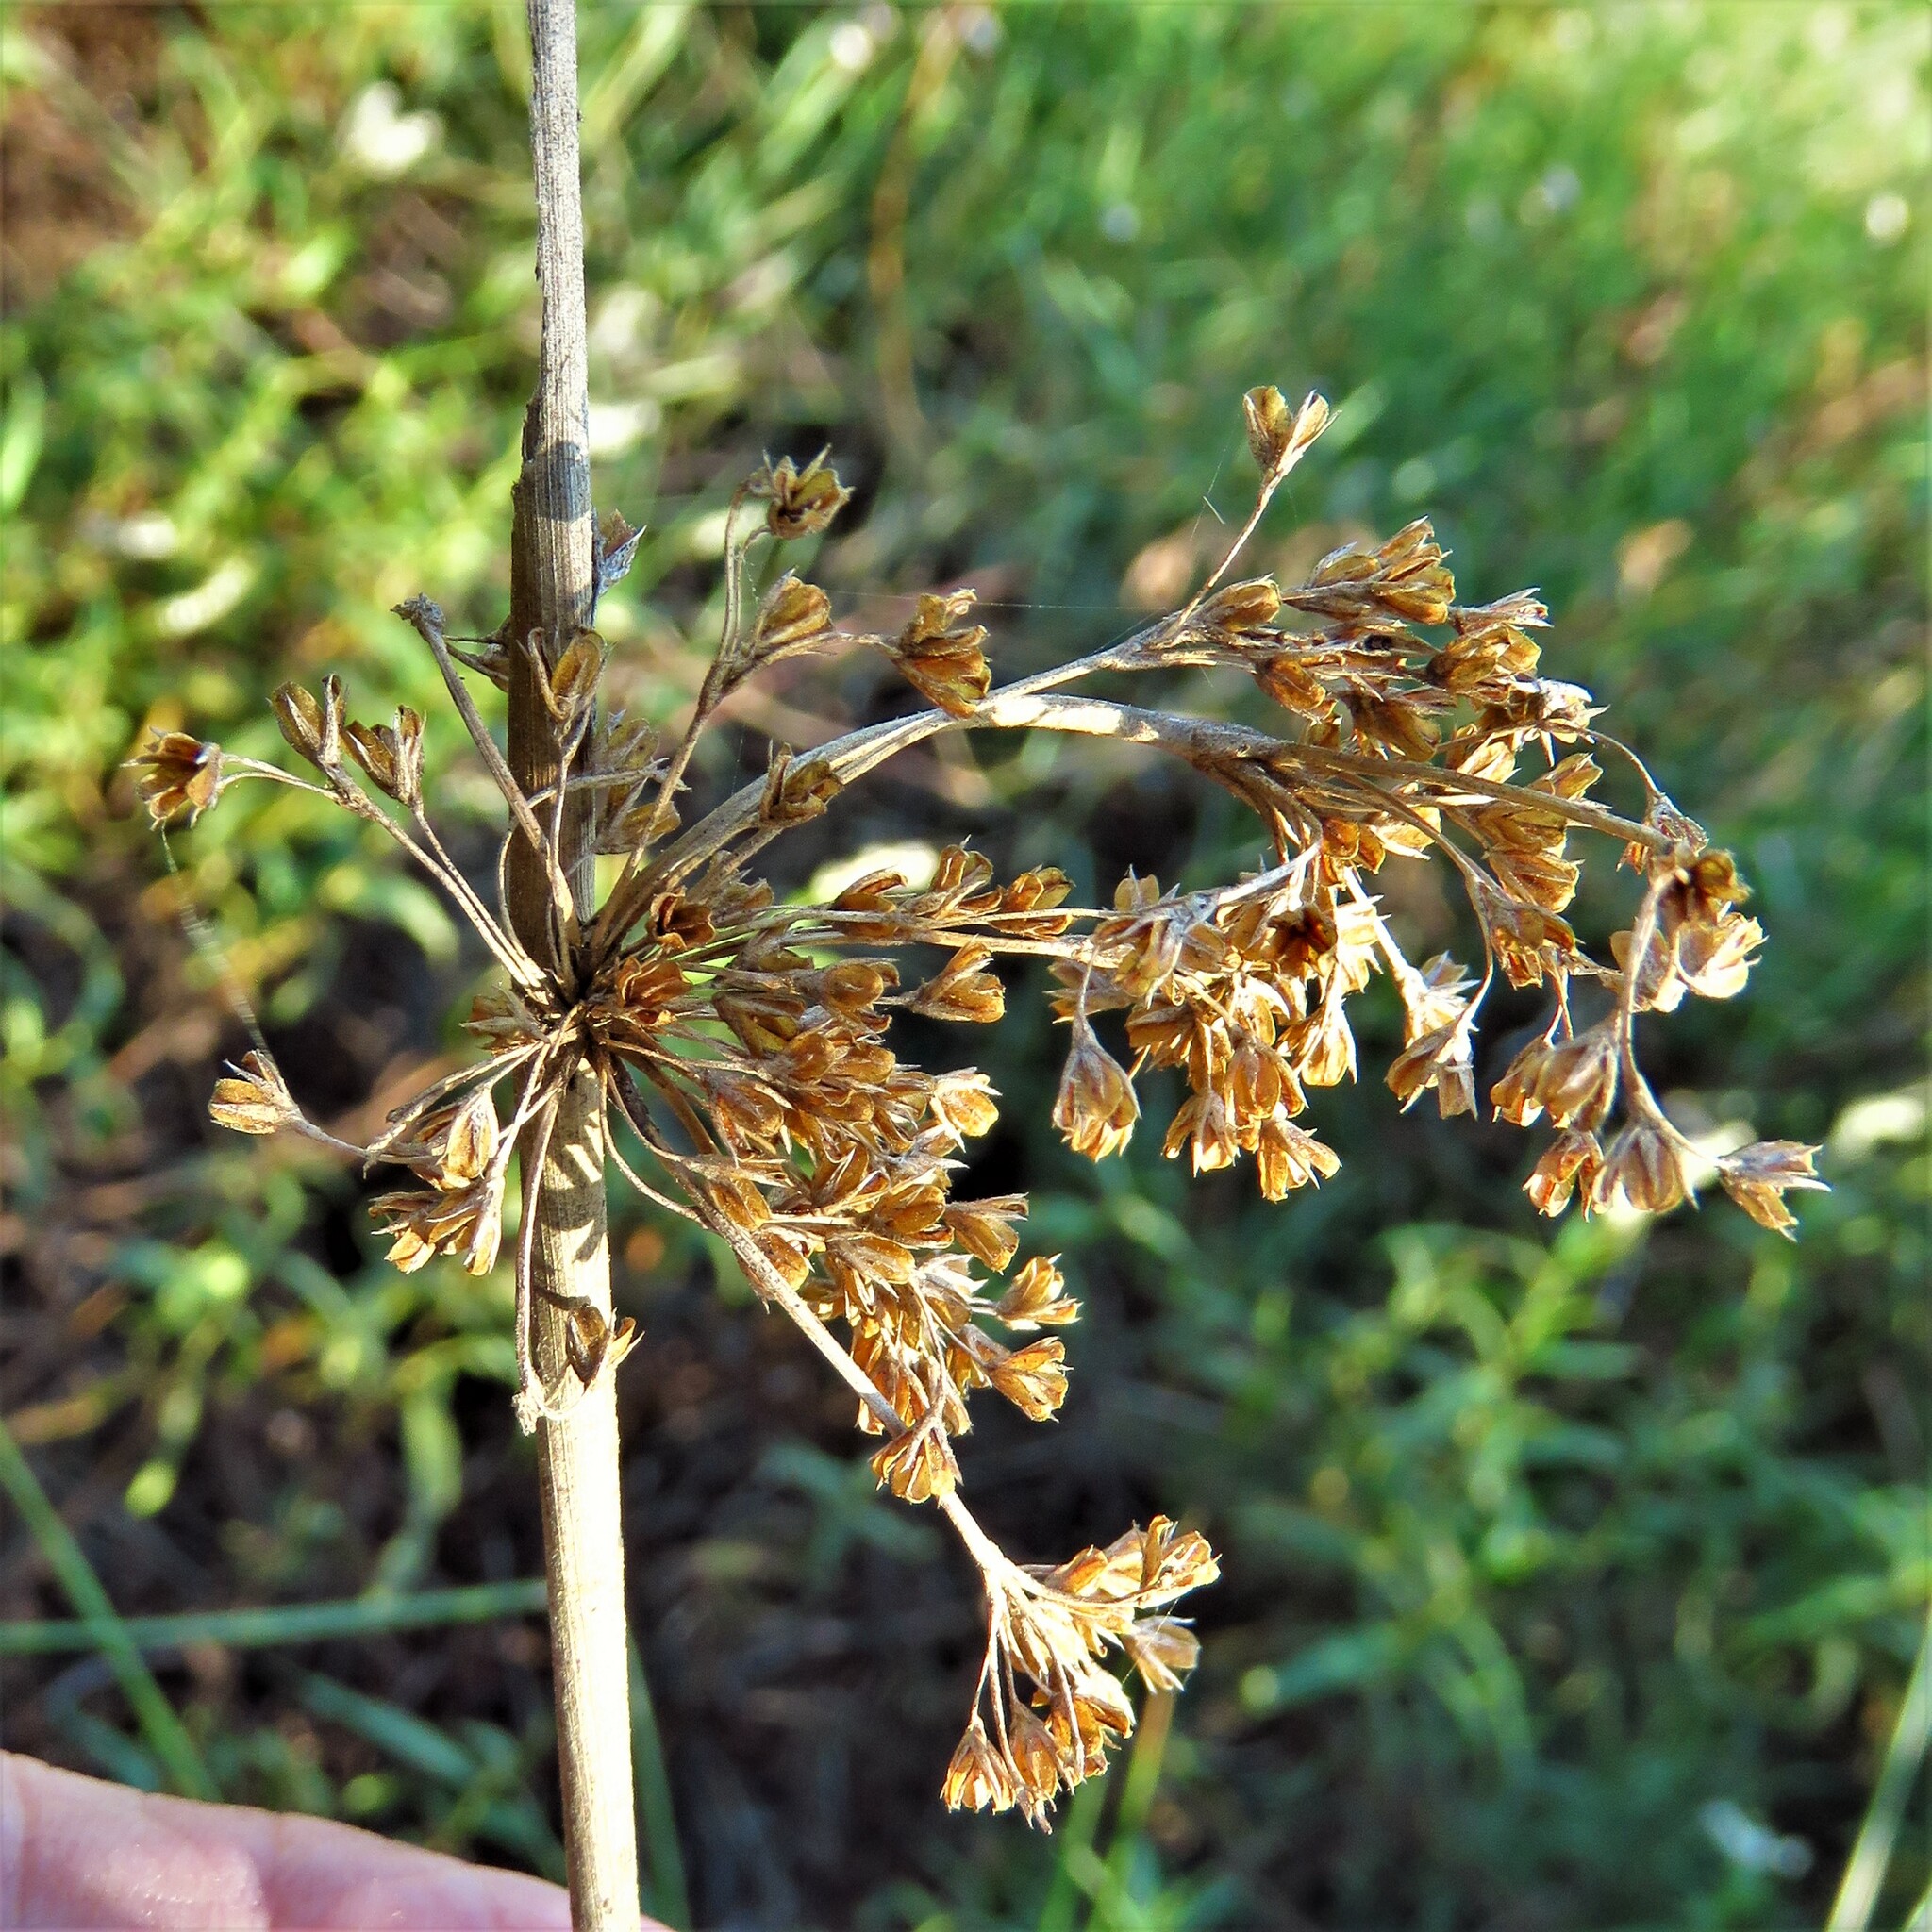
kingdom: Plantae
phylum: Tracheophyta
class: Liliopsida
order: Poales
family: Juncaceae
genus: Juncus
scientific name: Juncus effusus
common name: Soft rush
